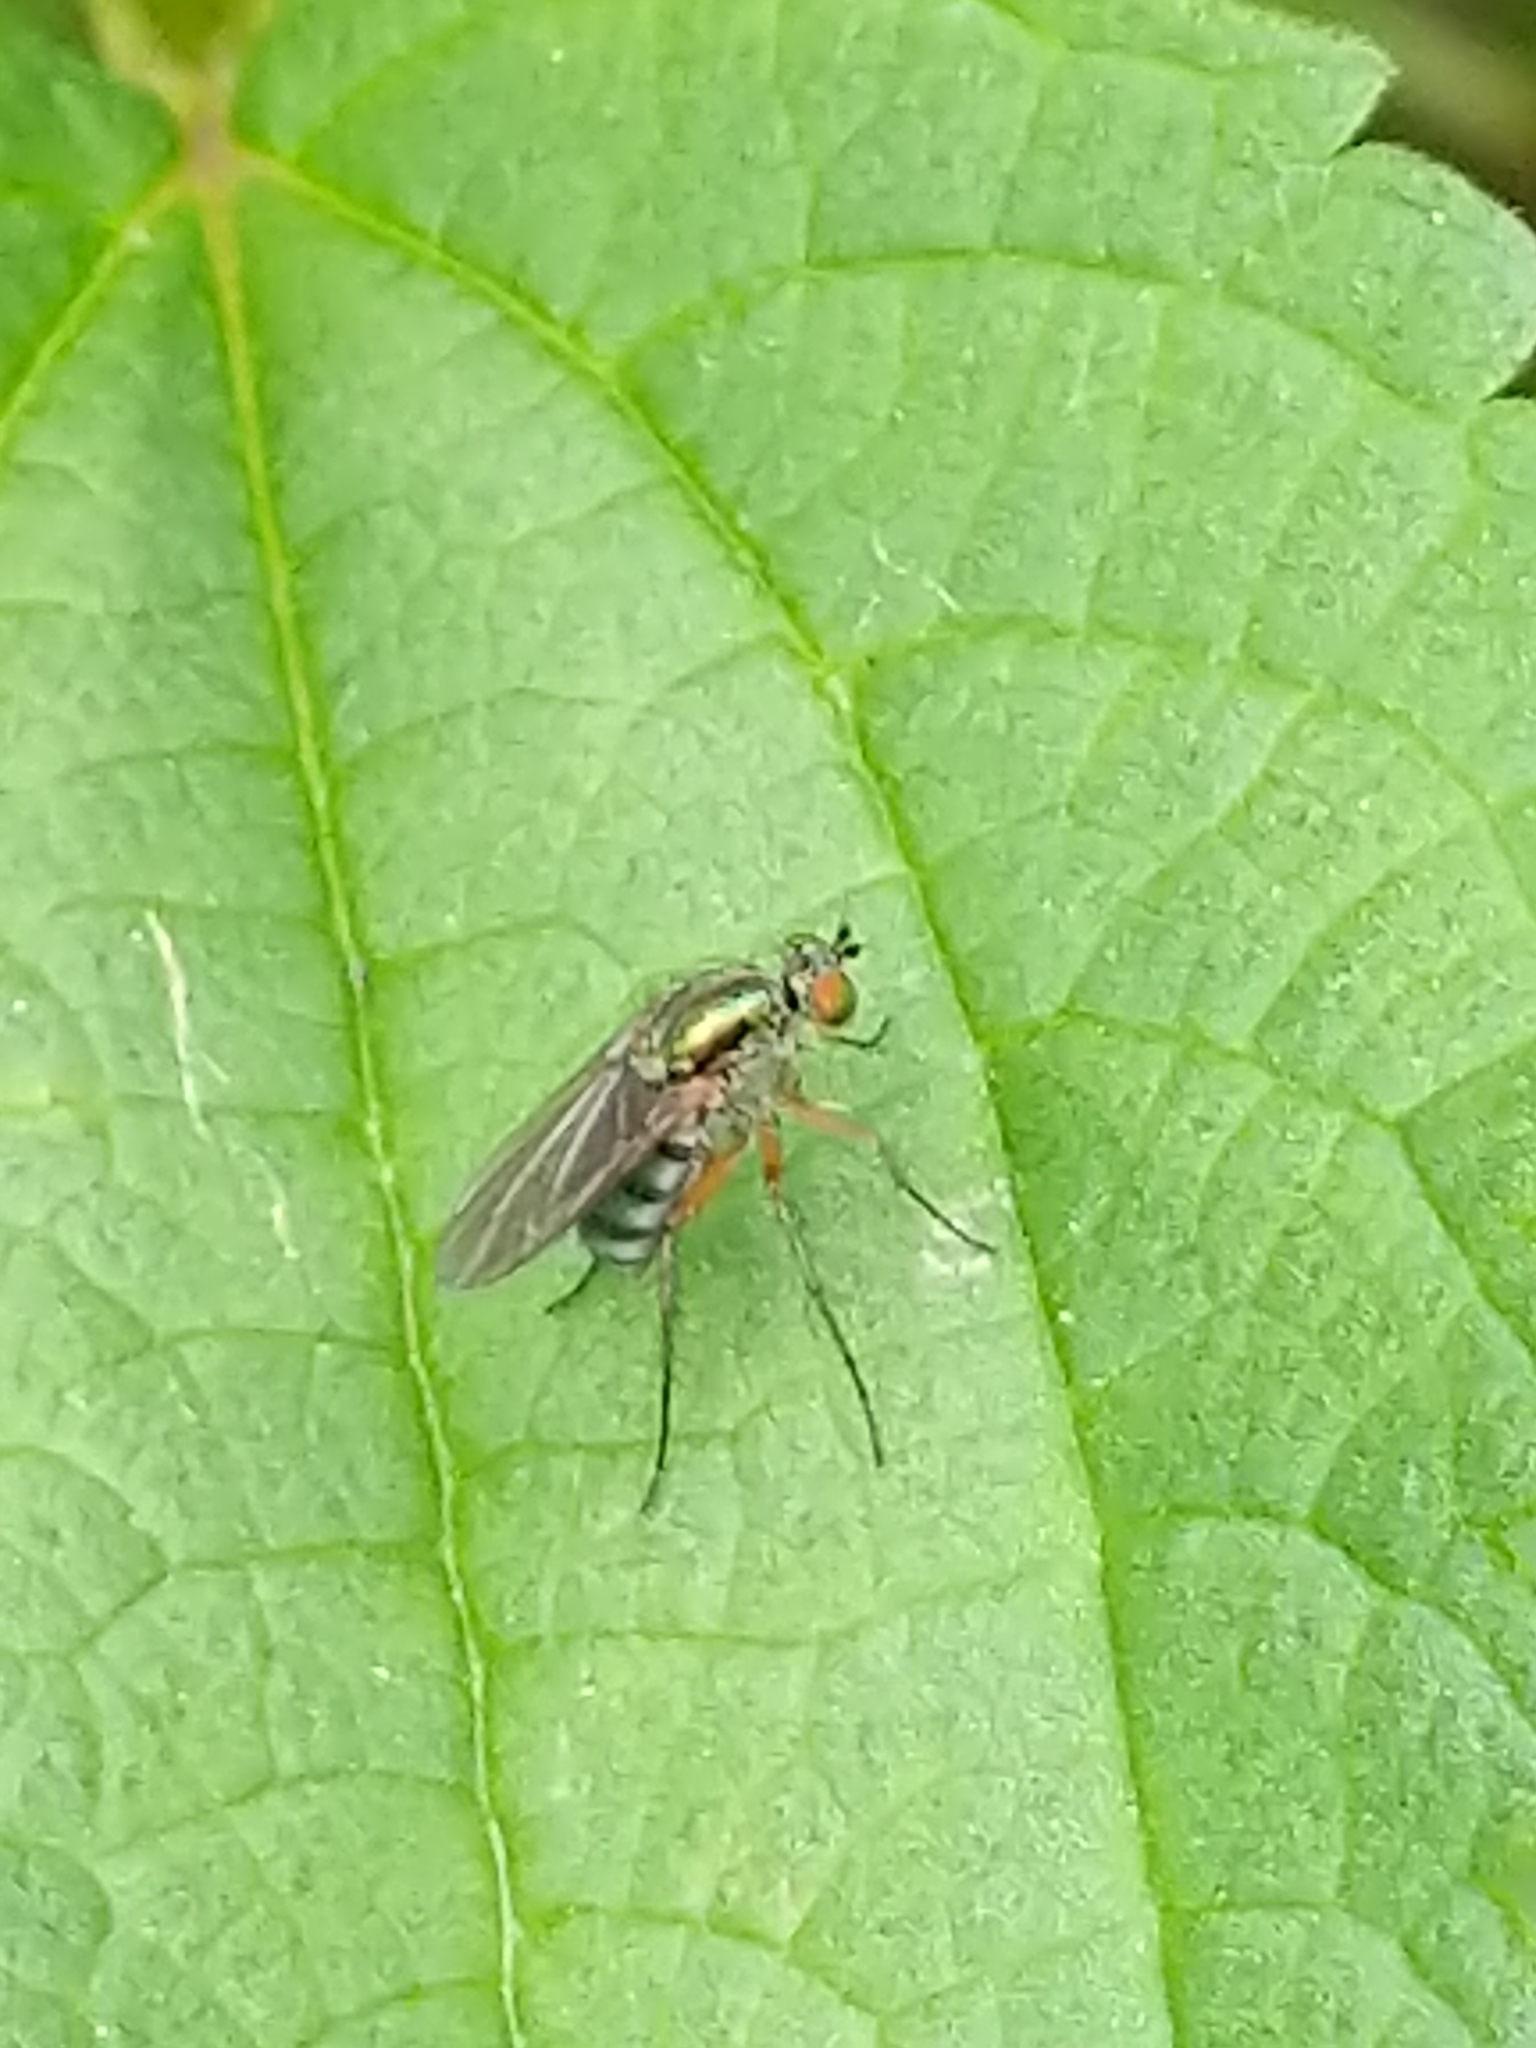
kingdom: Animalia
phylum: Arthropoda
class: Insecta
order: Diptera
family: Dolichopodidae
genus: Dolichopus
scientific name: Dolichopus
